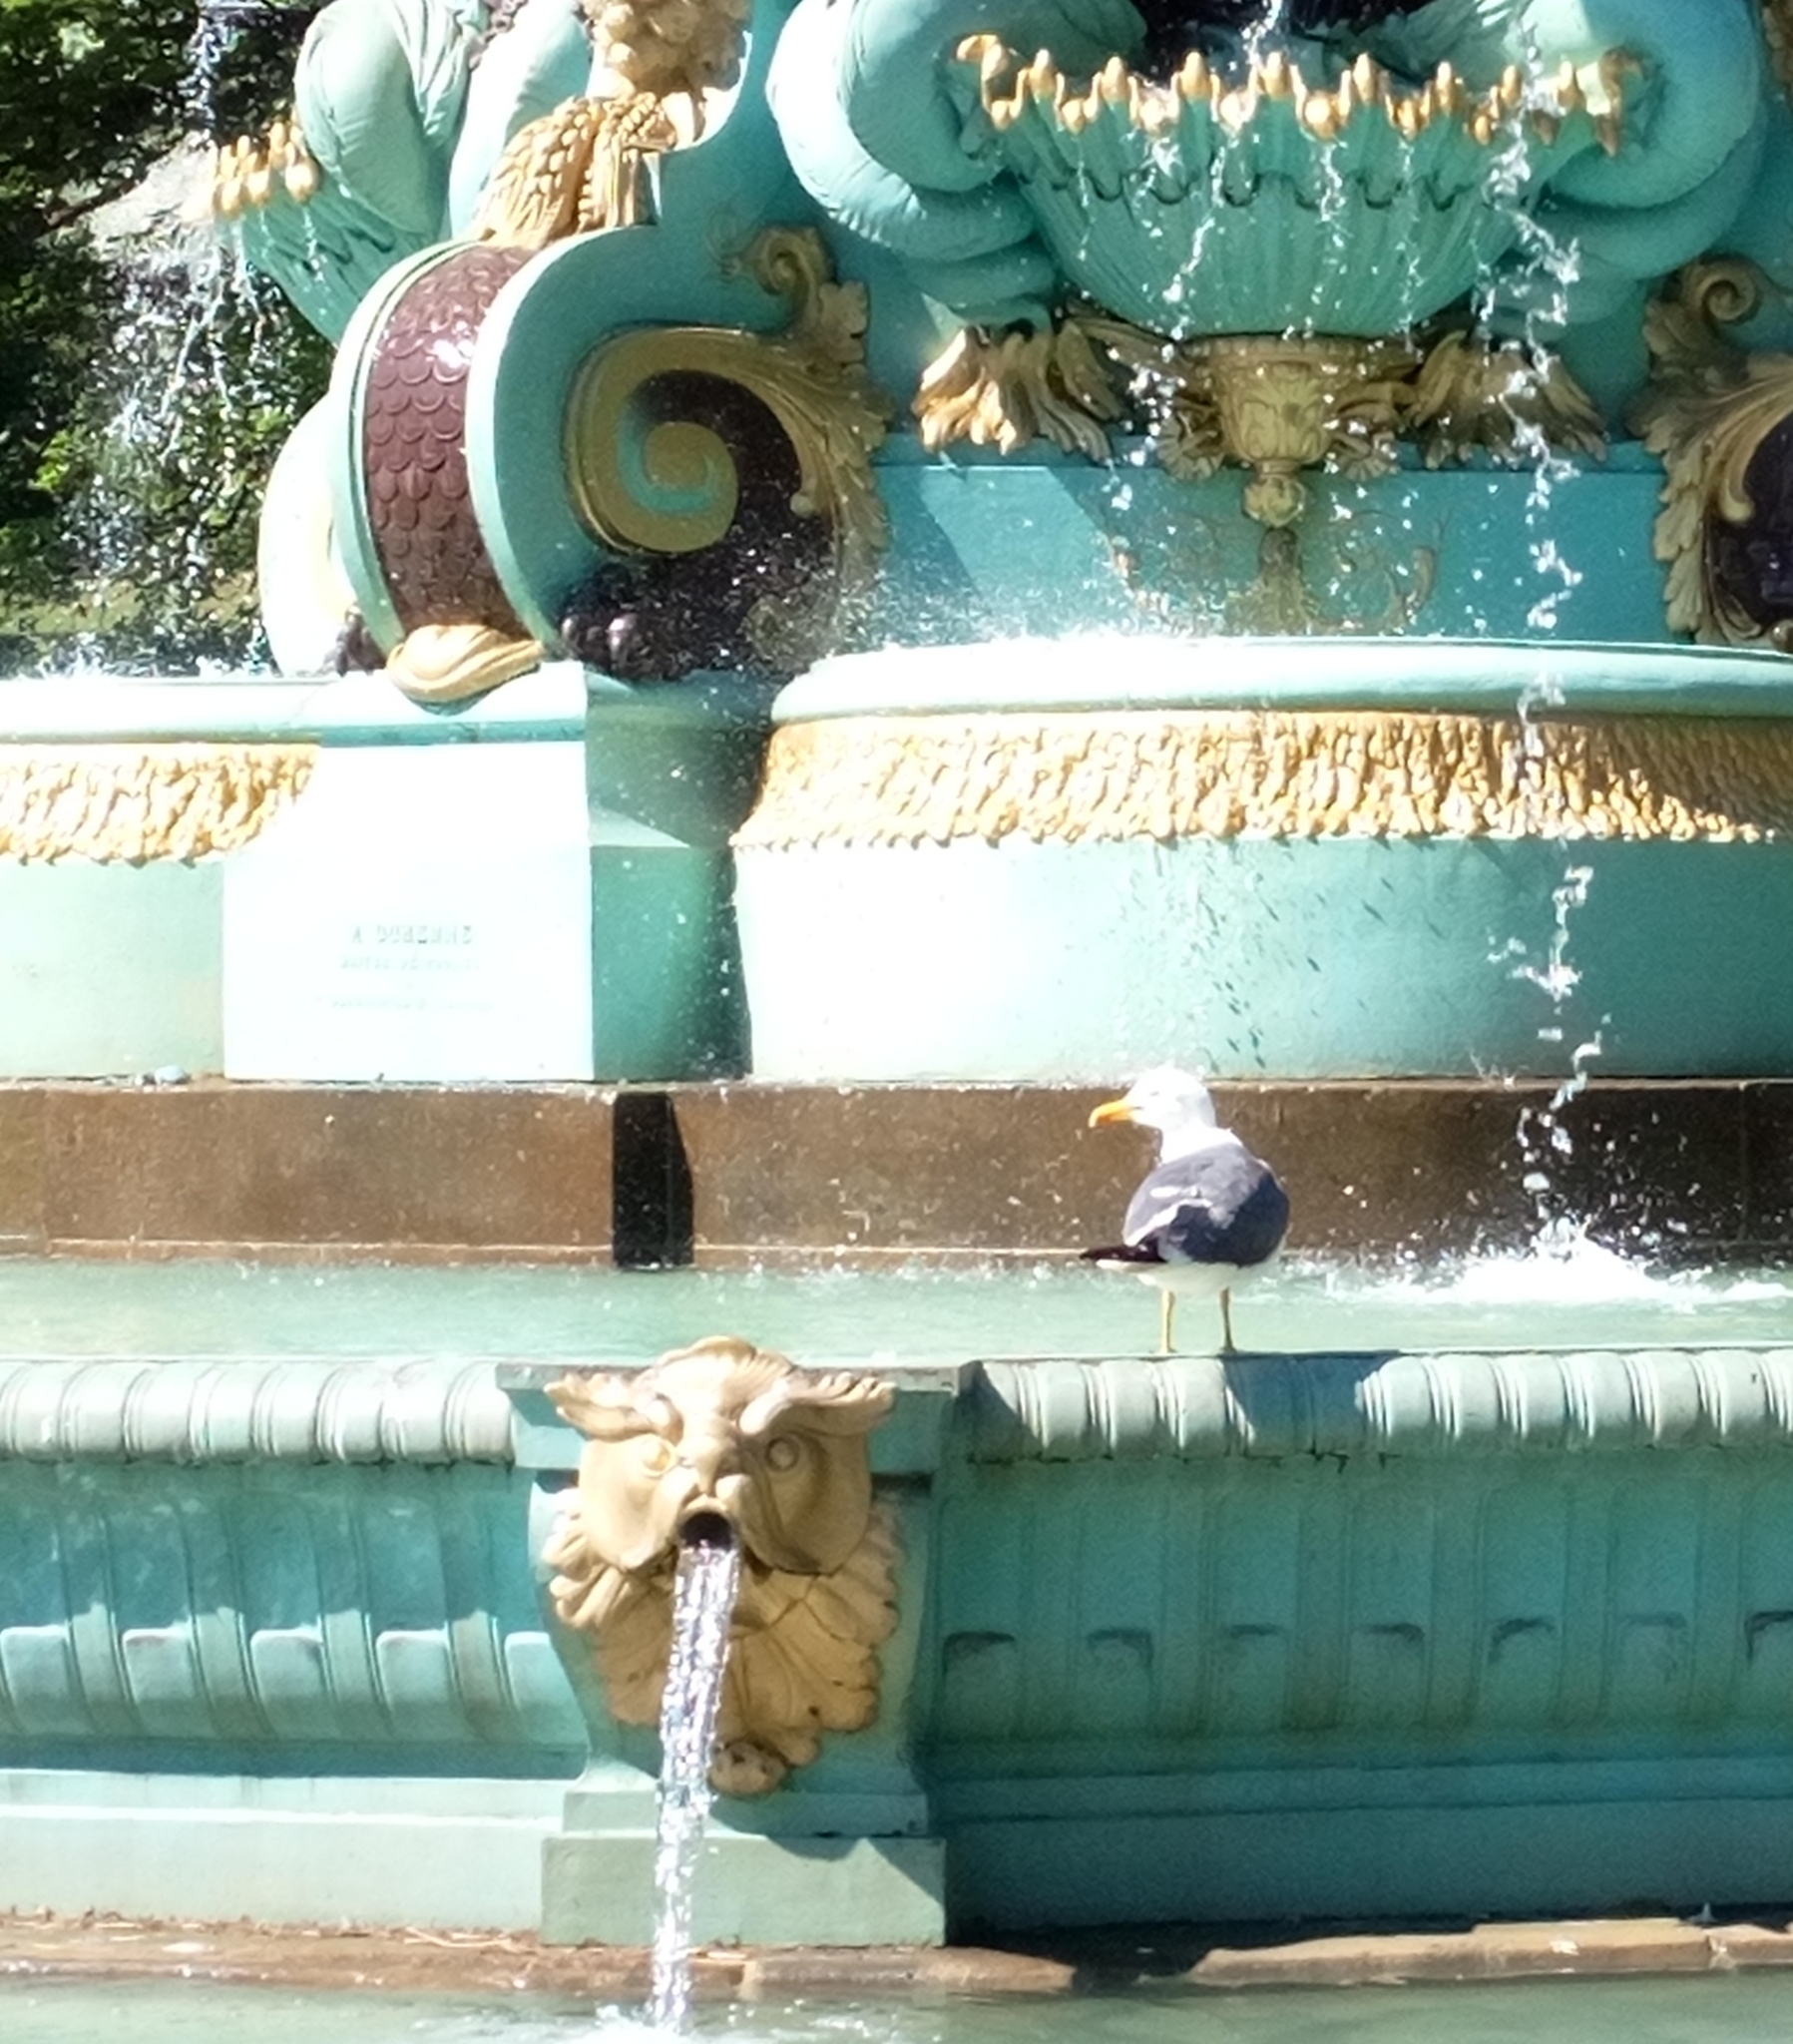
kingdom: Animalia
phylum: Chordata
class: Aves
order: Charadriiformes
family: Laridae
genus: Larus
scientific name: Larus fuscus
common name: Lesser black-backed gull
